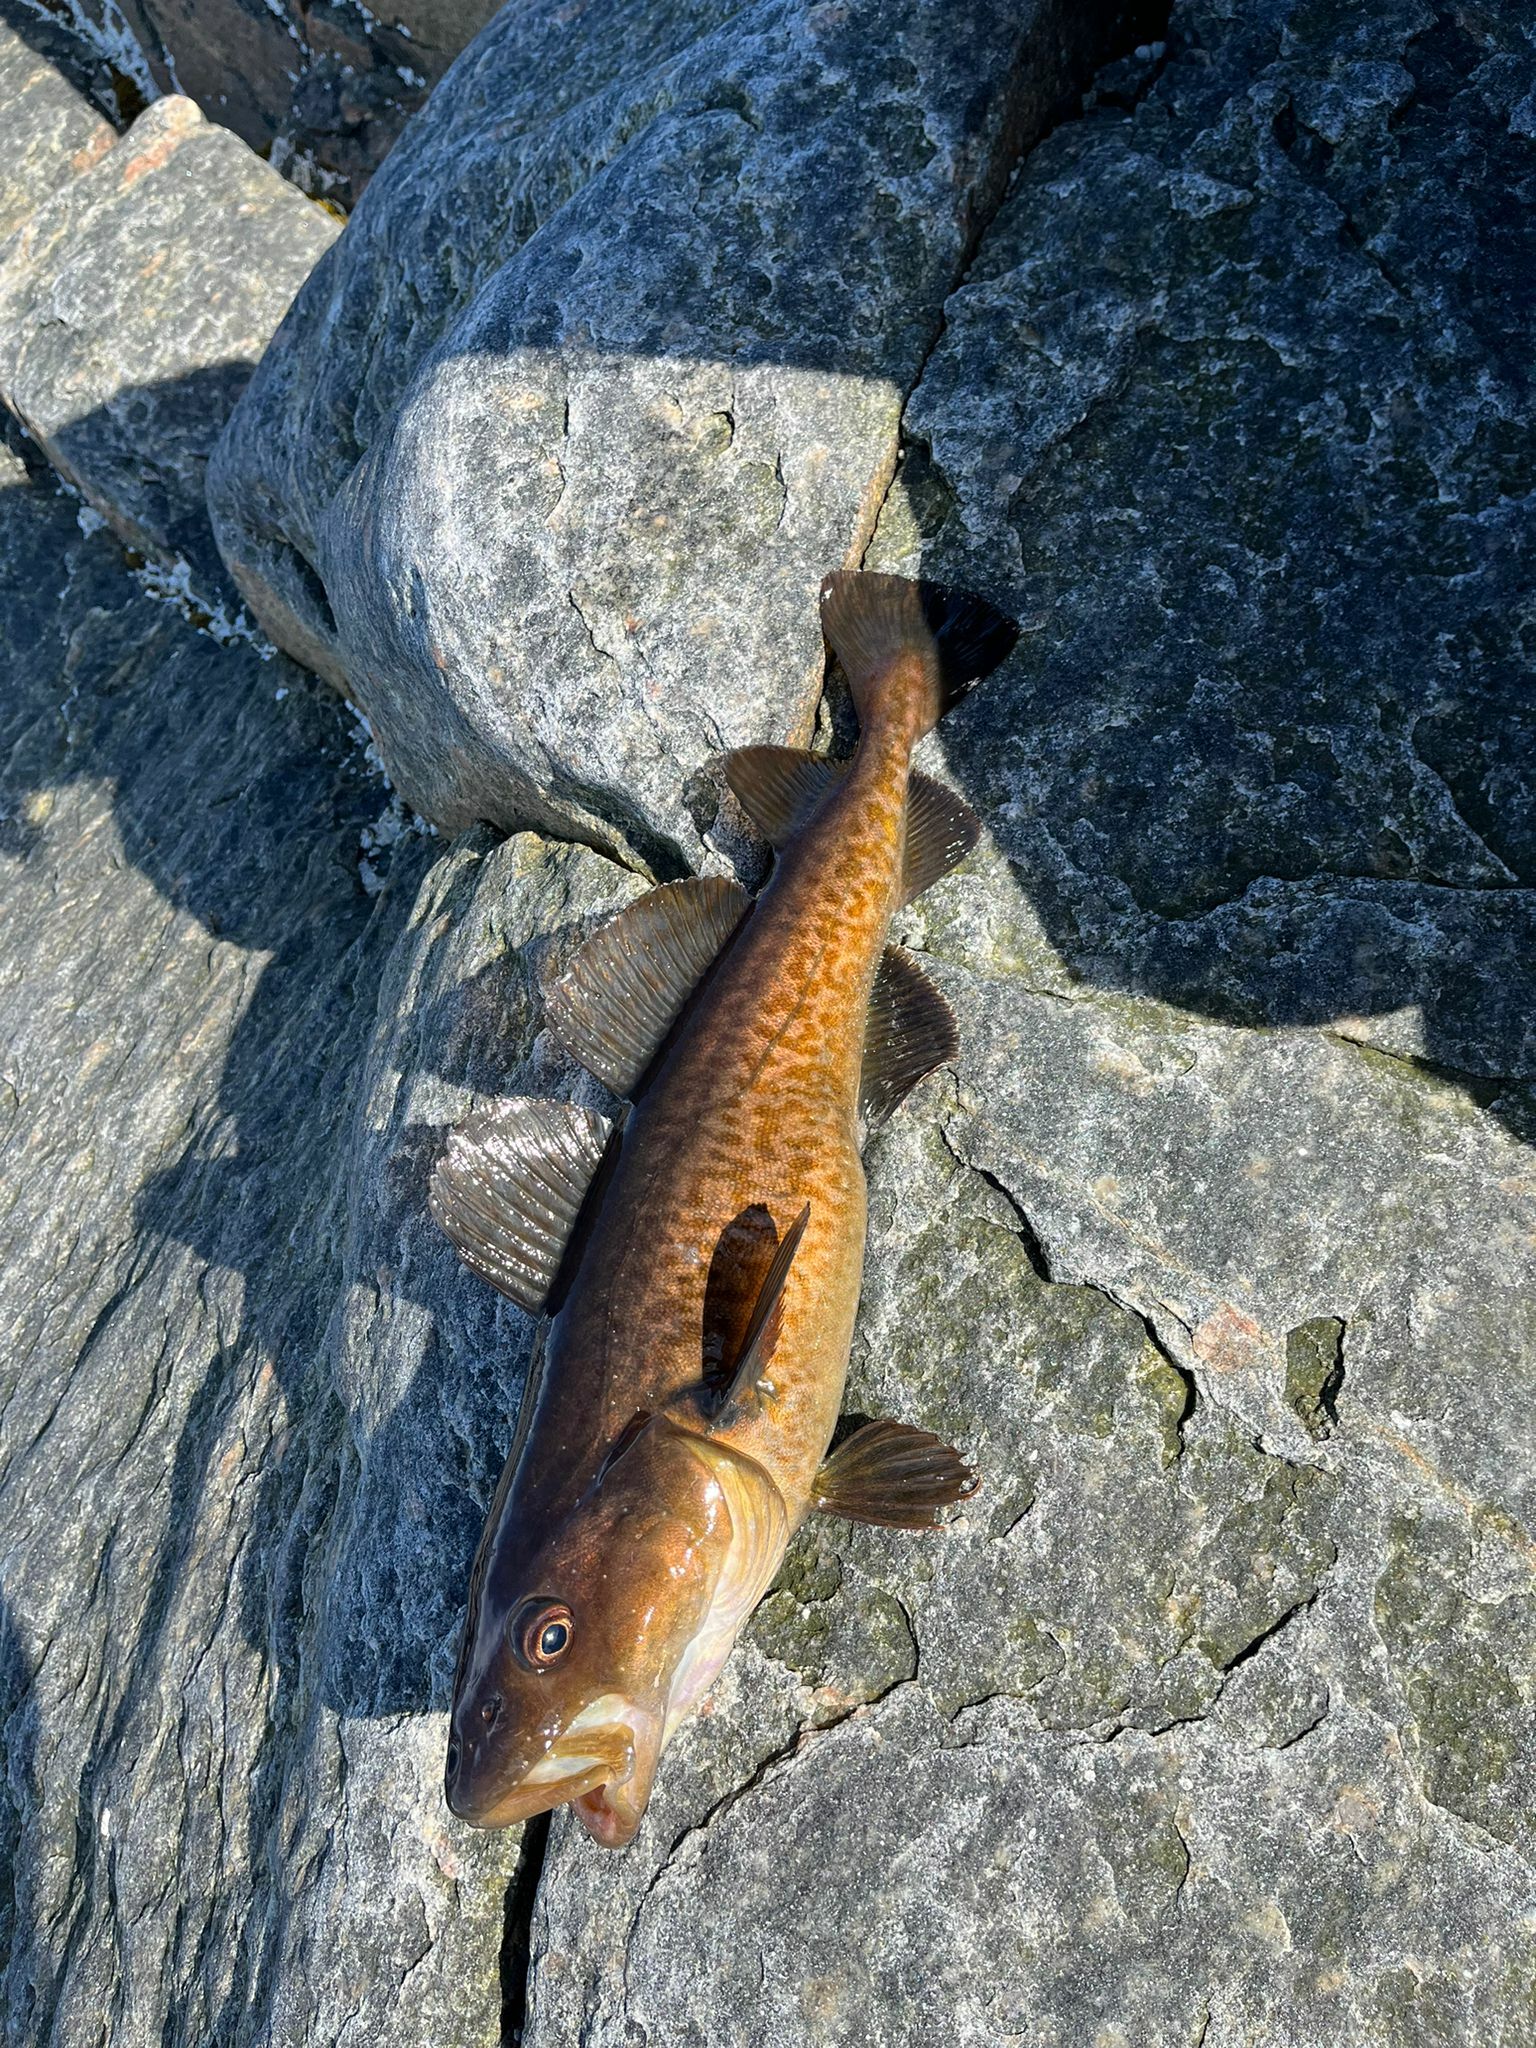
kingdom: Animalia
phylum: Chordata
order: Gadiformes
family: Gadidae
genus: Gadus
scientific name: Gadus macrocephalus
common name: Pacific cod
